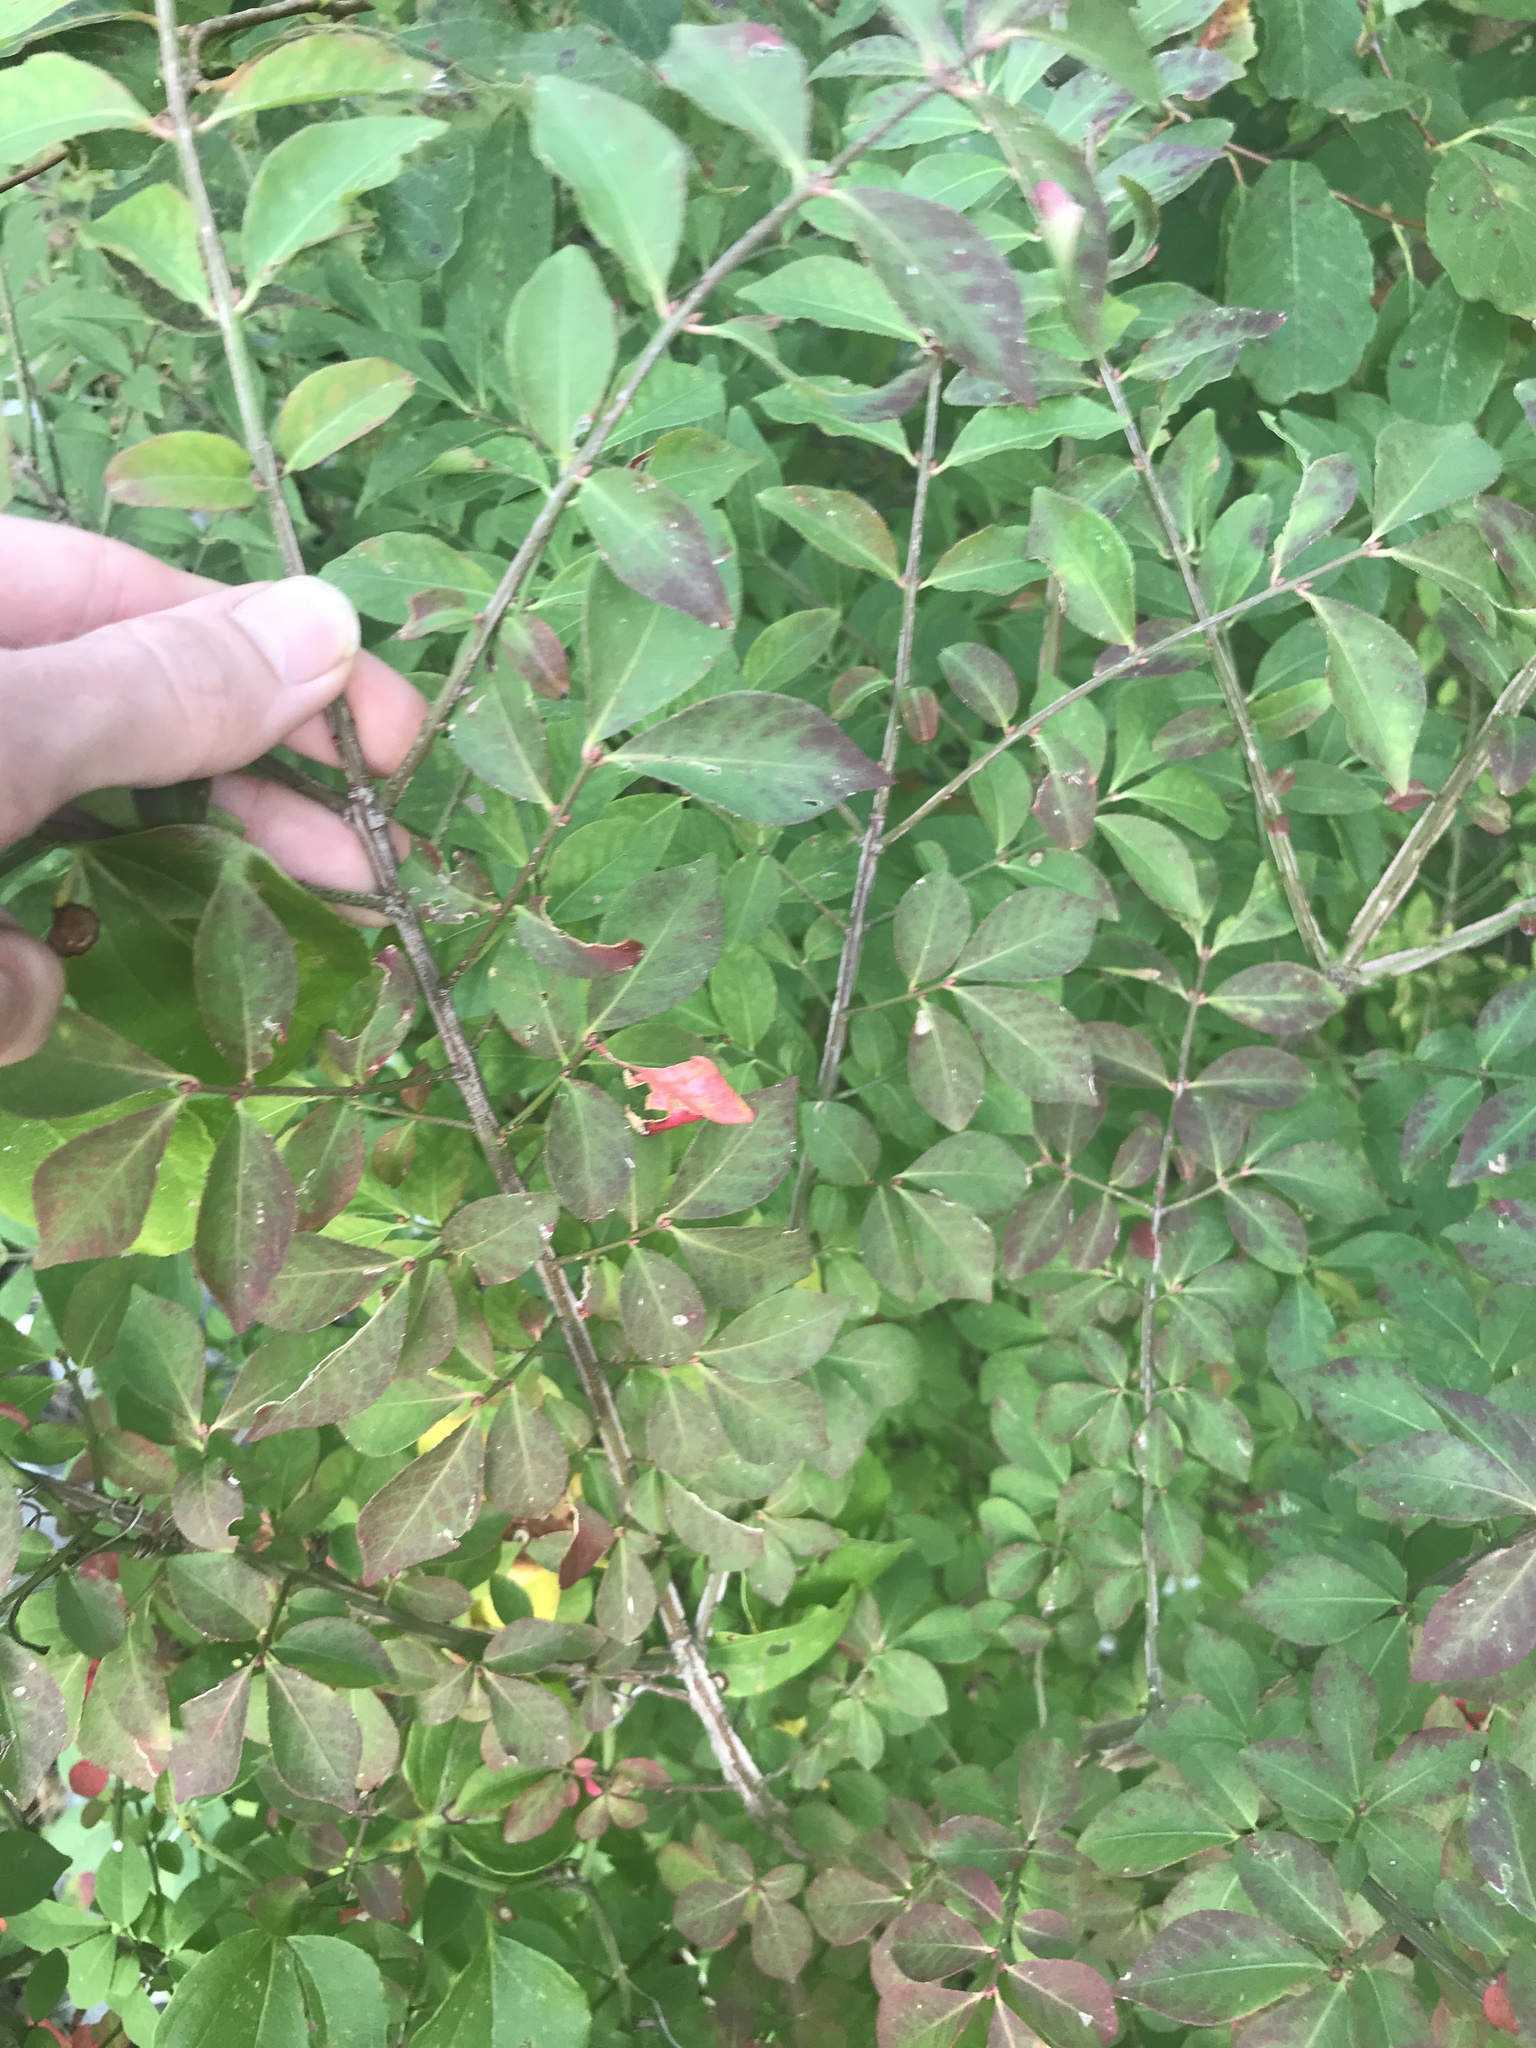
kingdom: Plantae
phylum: Tracheophyta
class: Magnoliopsida
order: Celastrales
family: Celastraceae
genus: Euonymus
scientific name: Euonymus alatus
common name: Winged euonymus
